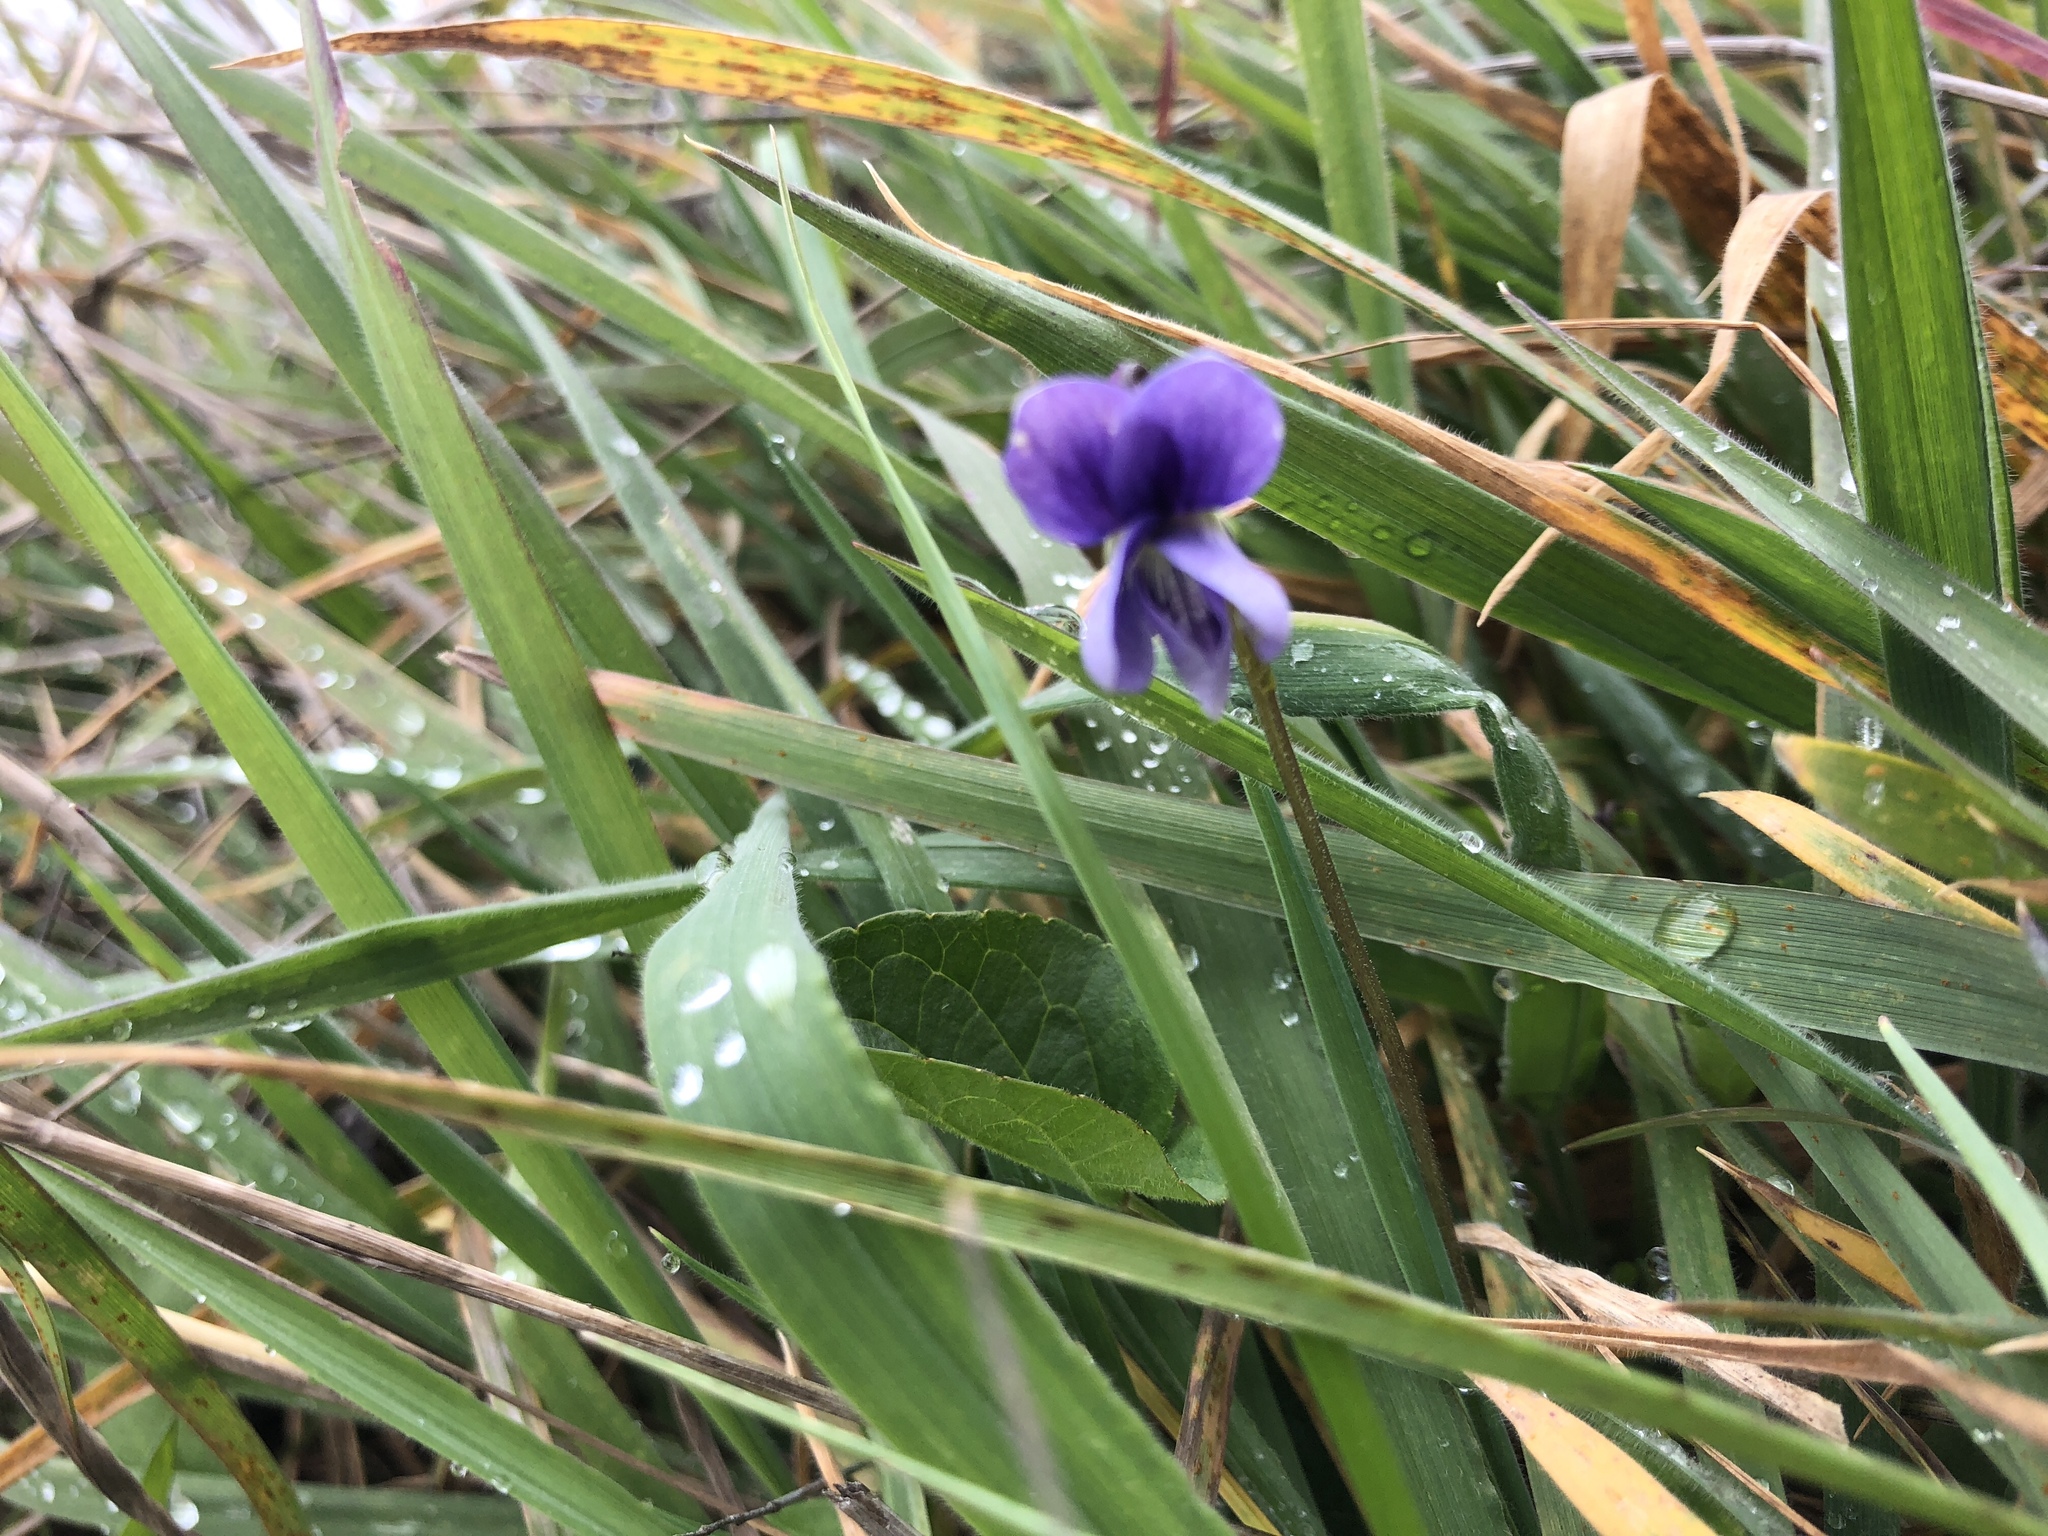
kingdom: Plantae
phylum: Tracheophyta
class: Magnoliopsida
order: Malpighiales
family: Violaceae
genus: Viola
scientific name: Viola adunca
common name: Sand violet
